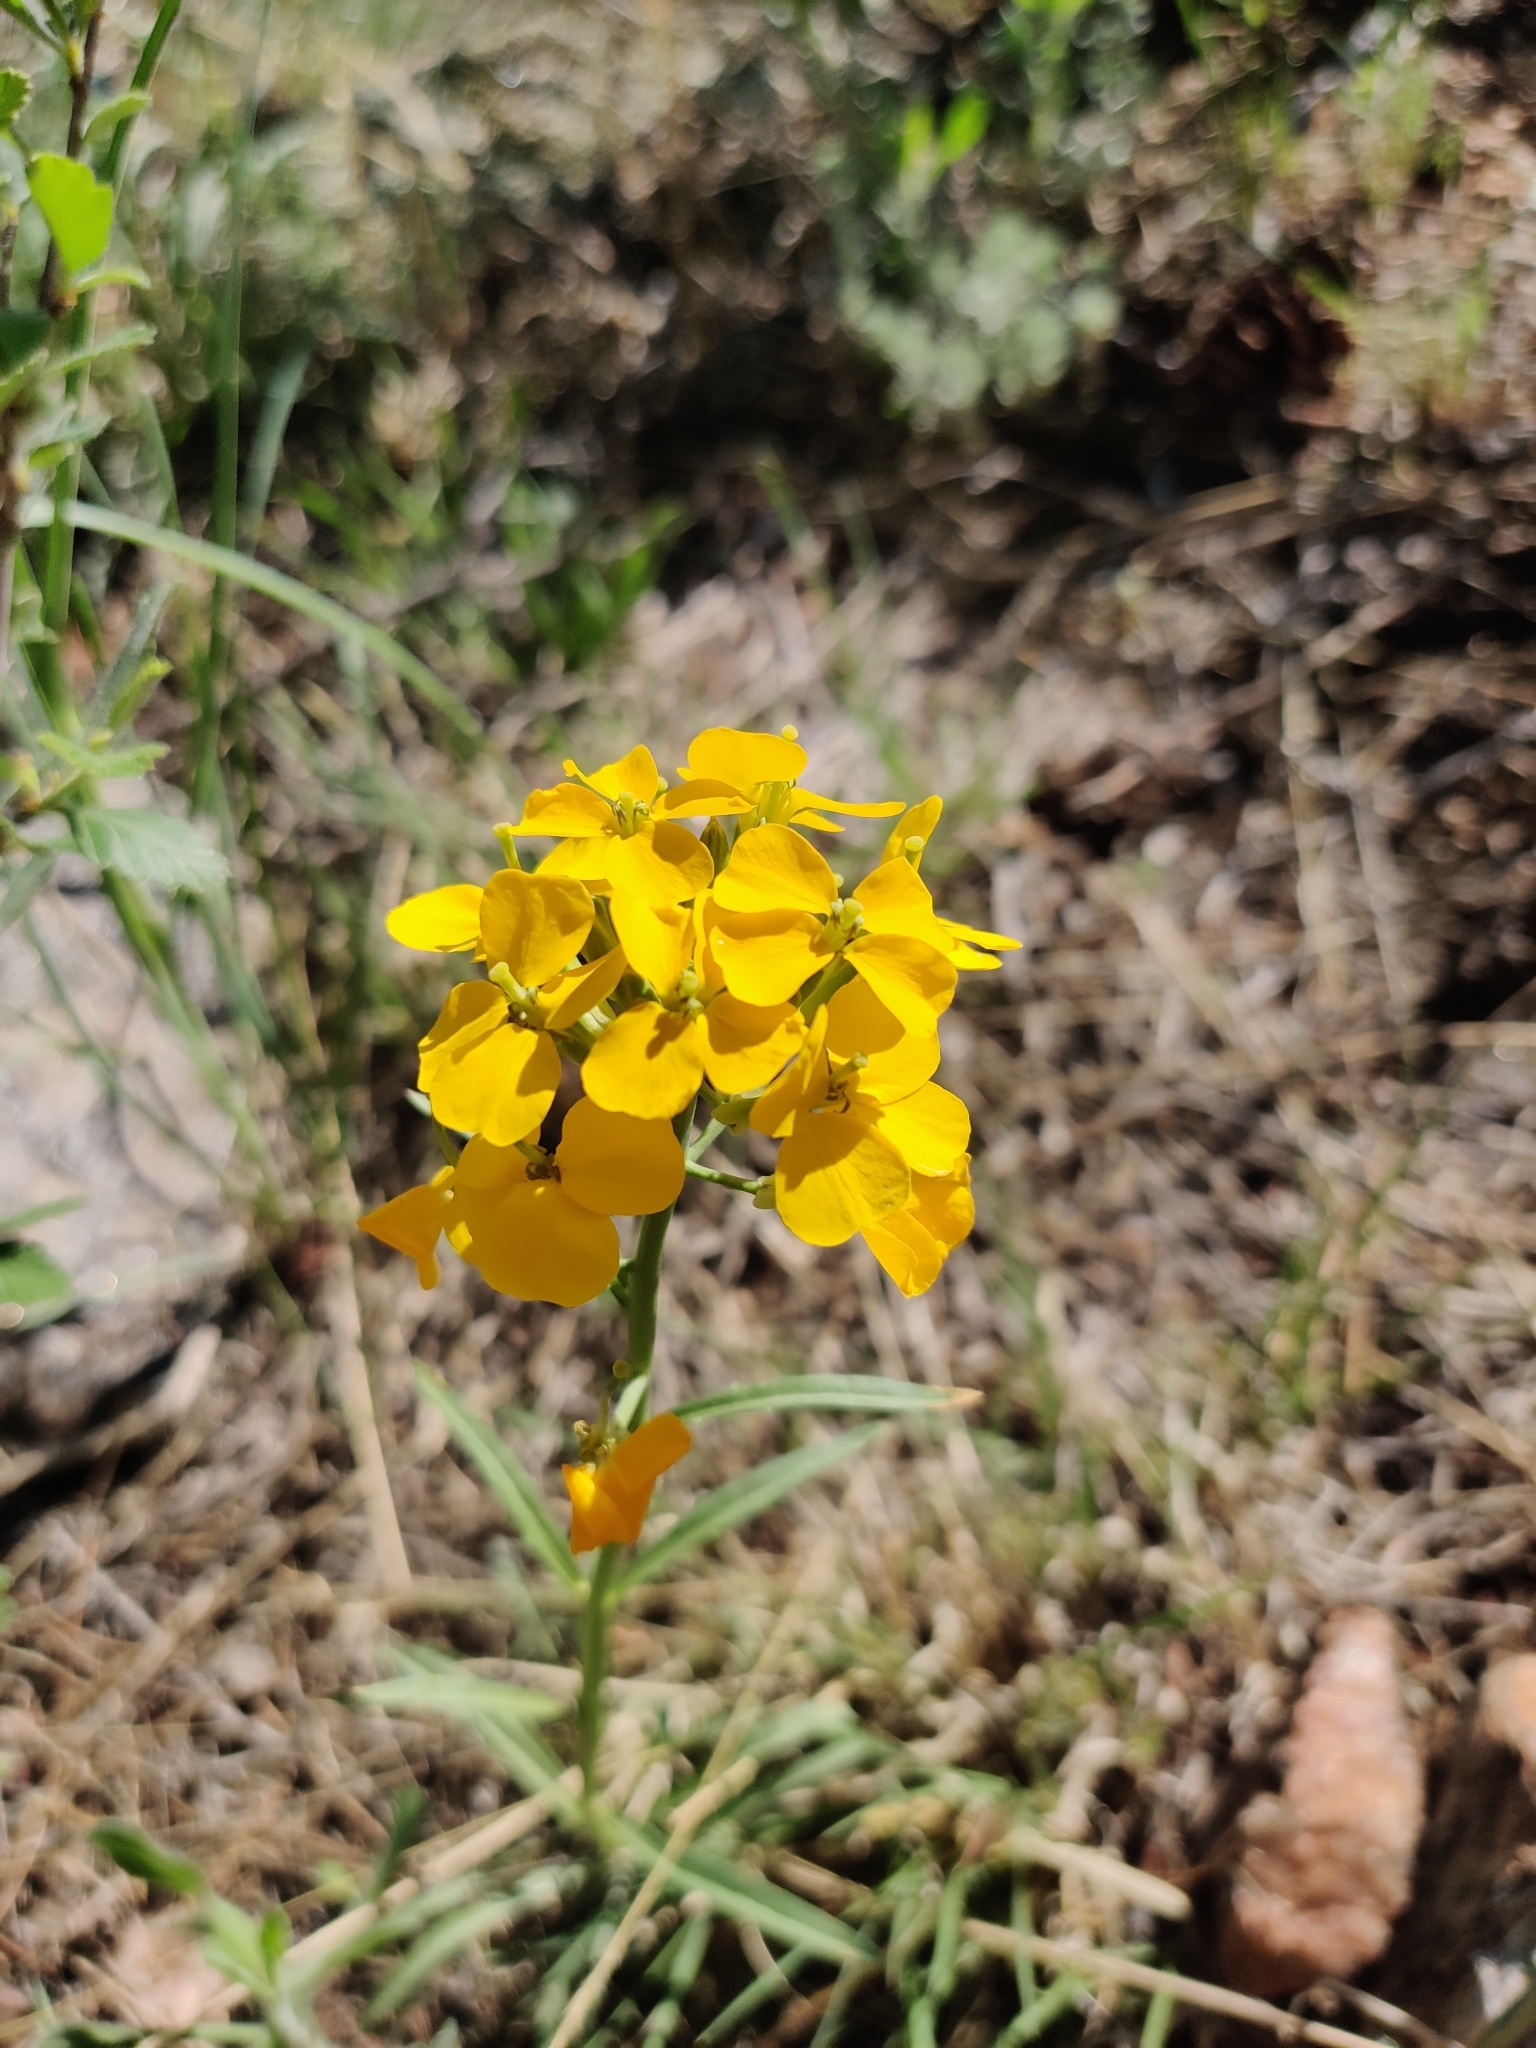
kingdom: Plantae
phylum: Tracheophyta
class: Magnoliopsida
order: Brassicales
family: Brassicaceae
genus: Erysimum
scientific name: Erysimum capitatum
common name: Western wallflower
